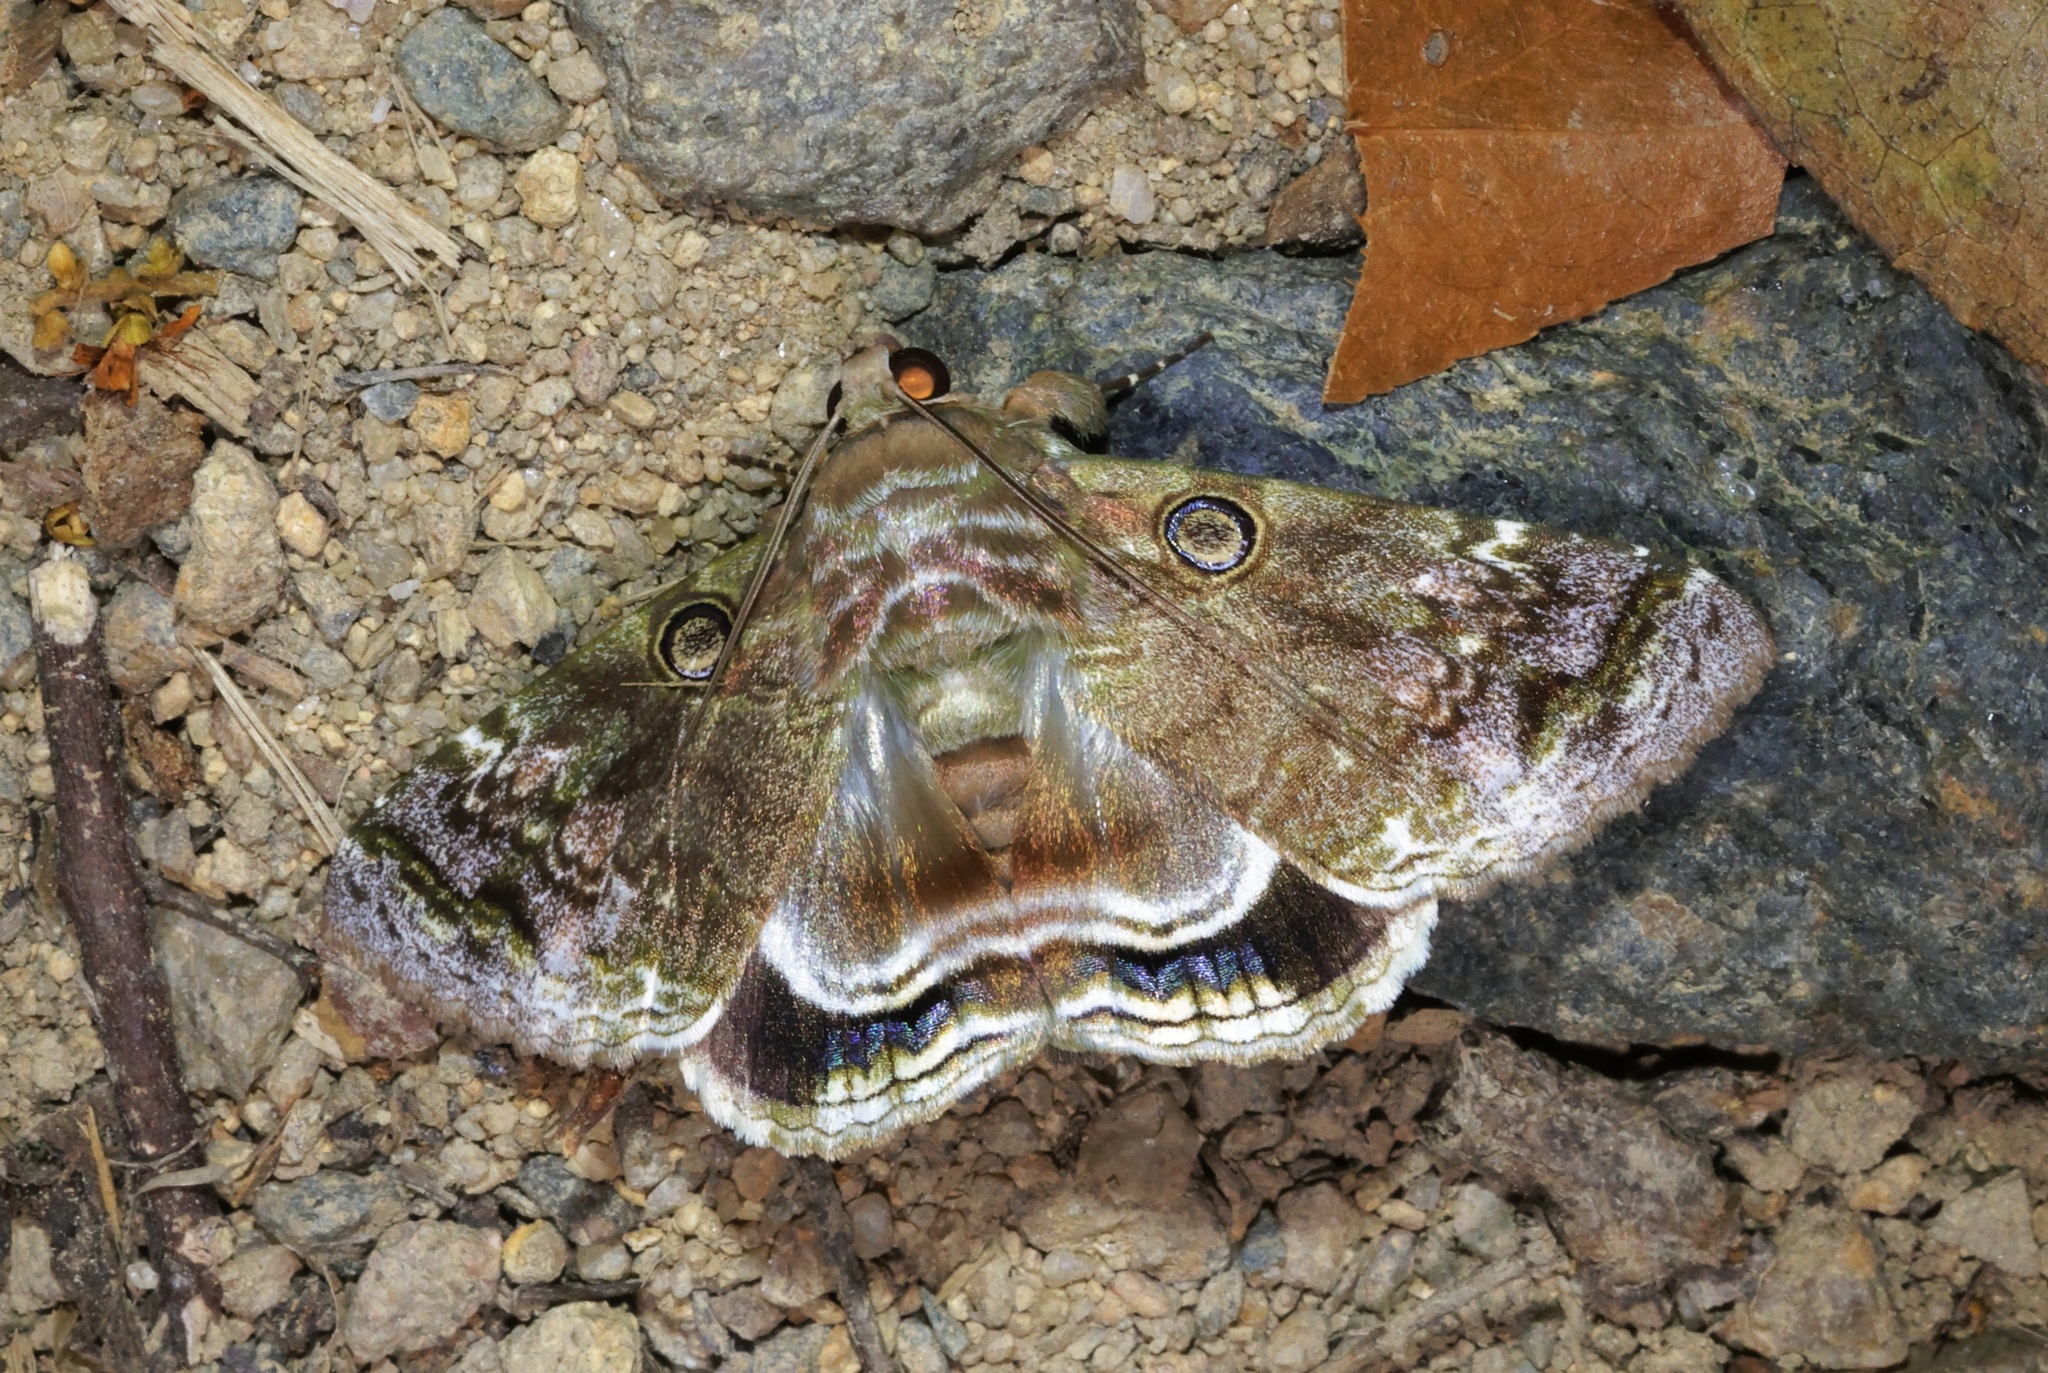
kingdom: Animalia
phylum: Arthropoda
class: Insecta
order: Lepidoptera
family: Erebidae
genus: Cyclodes
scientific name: Cyclodes omma
